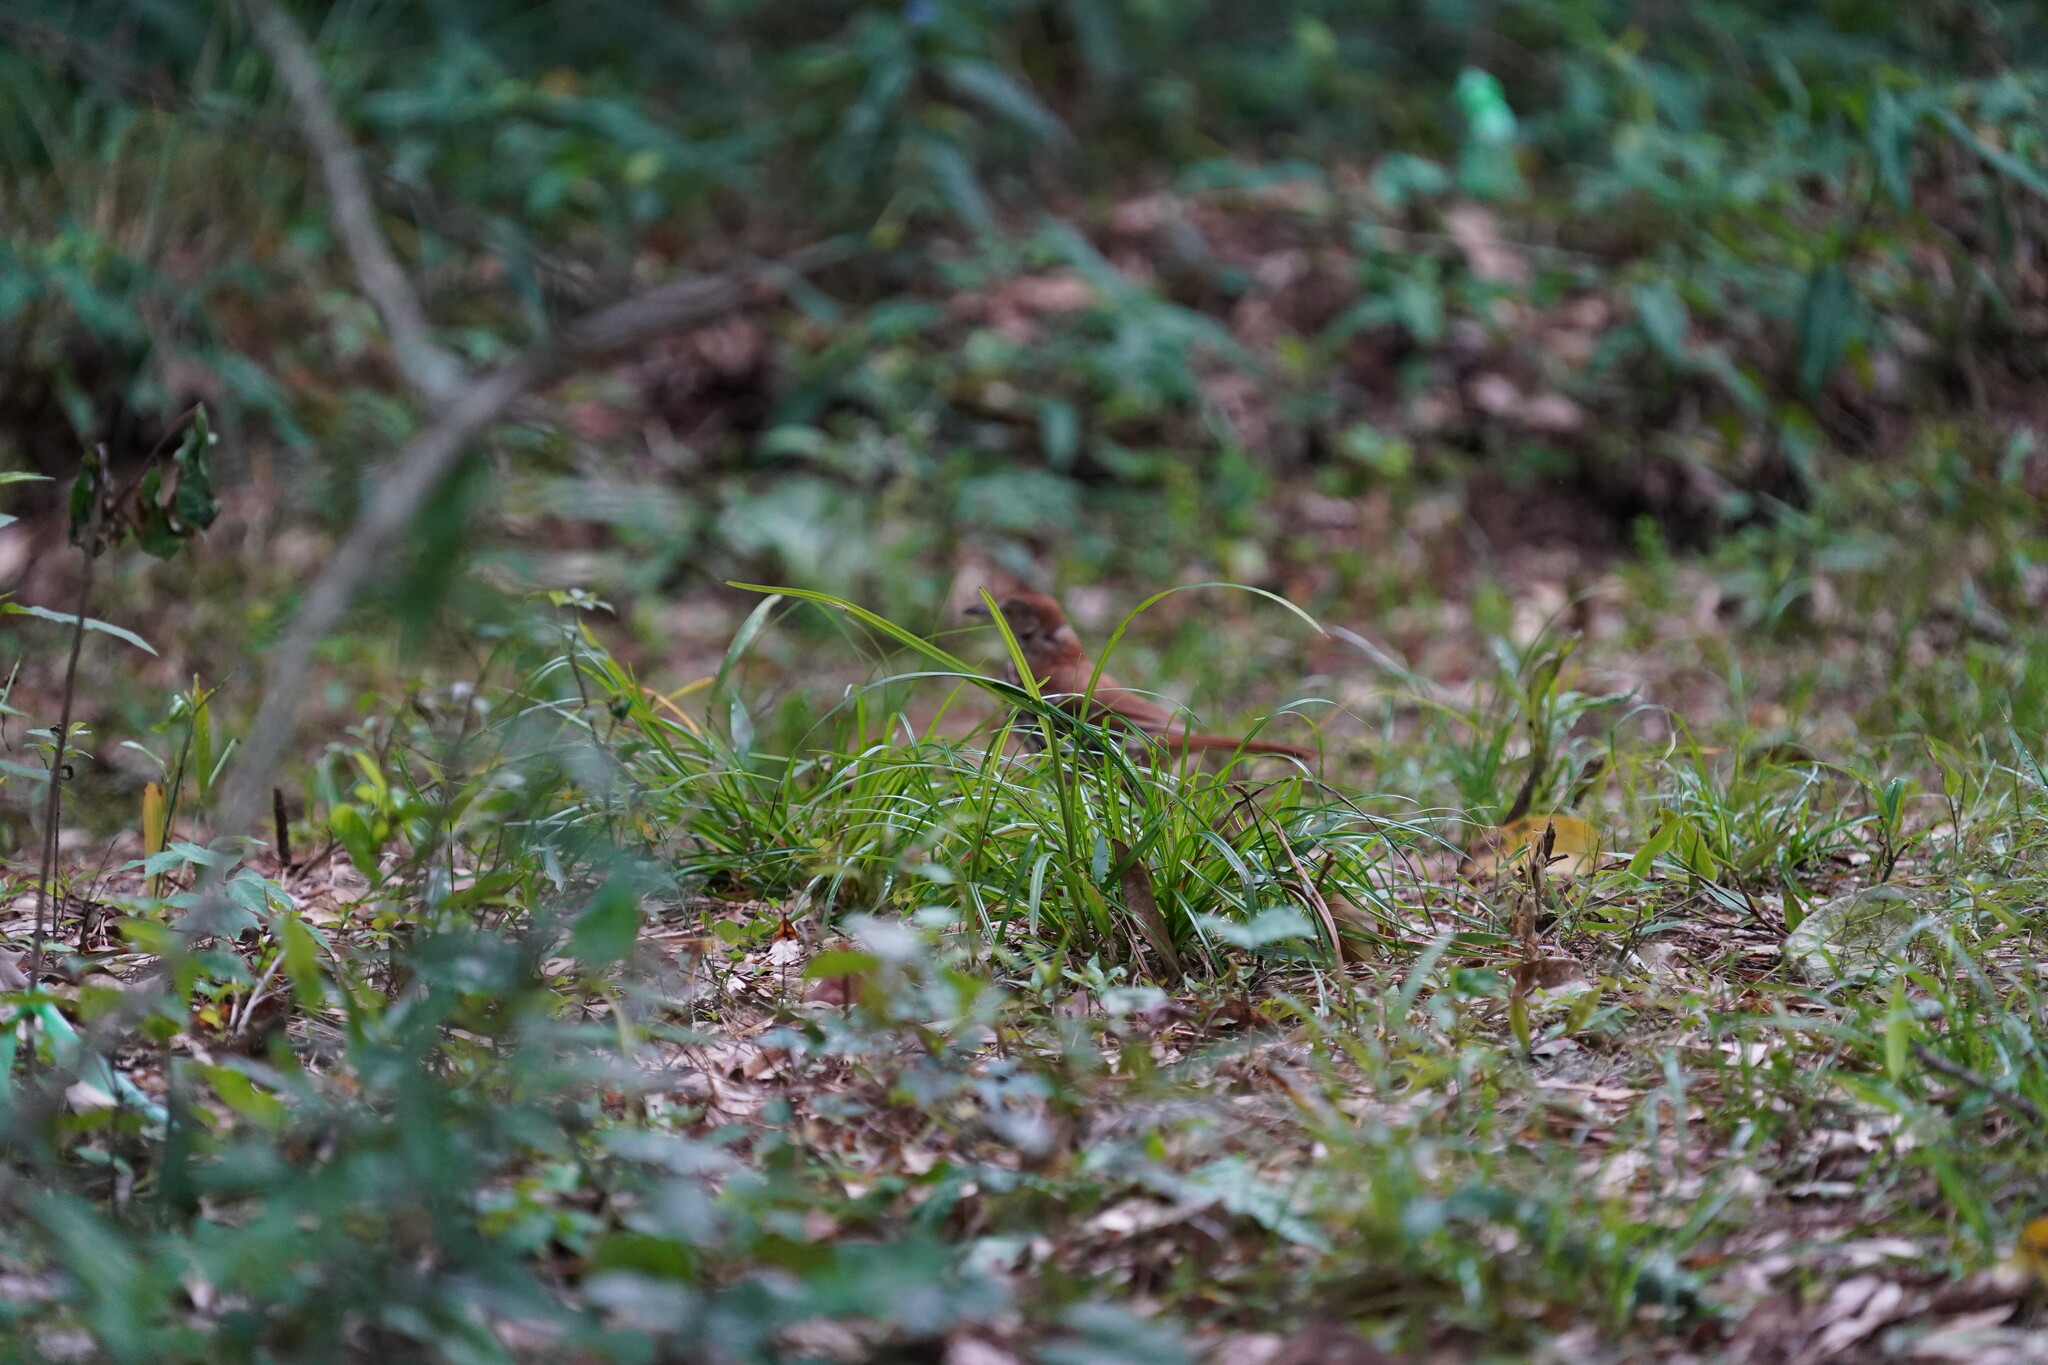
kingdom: Animalia
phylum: Chordata
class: Aves
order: Passeriformes
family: Mimidae
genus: Toxostoma
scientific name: Toxostoma rufum
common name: Brown thrasher
